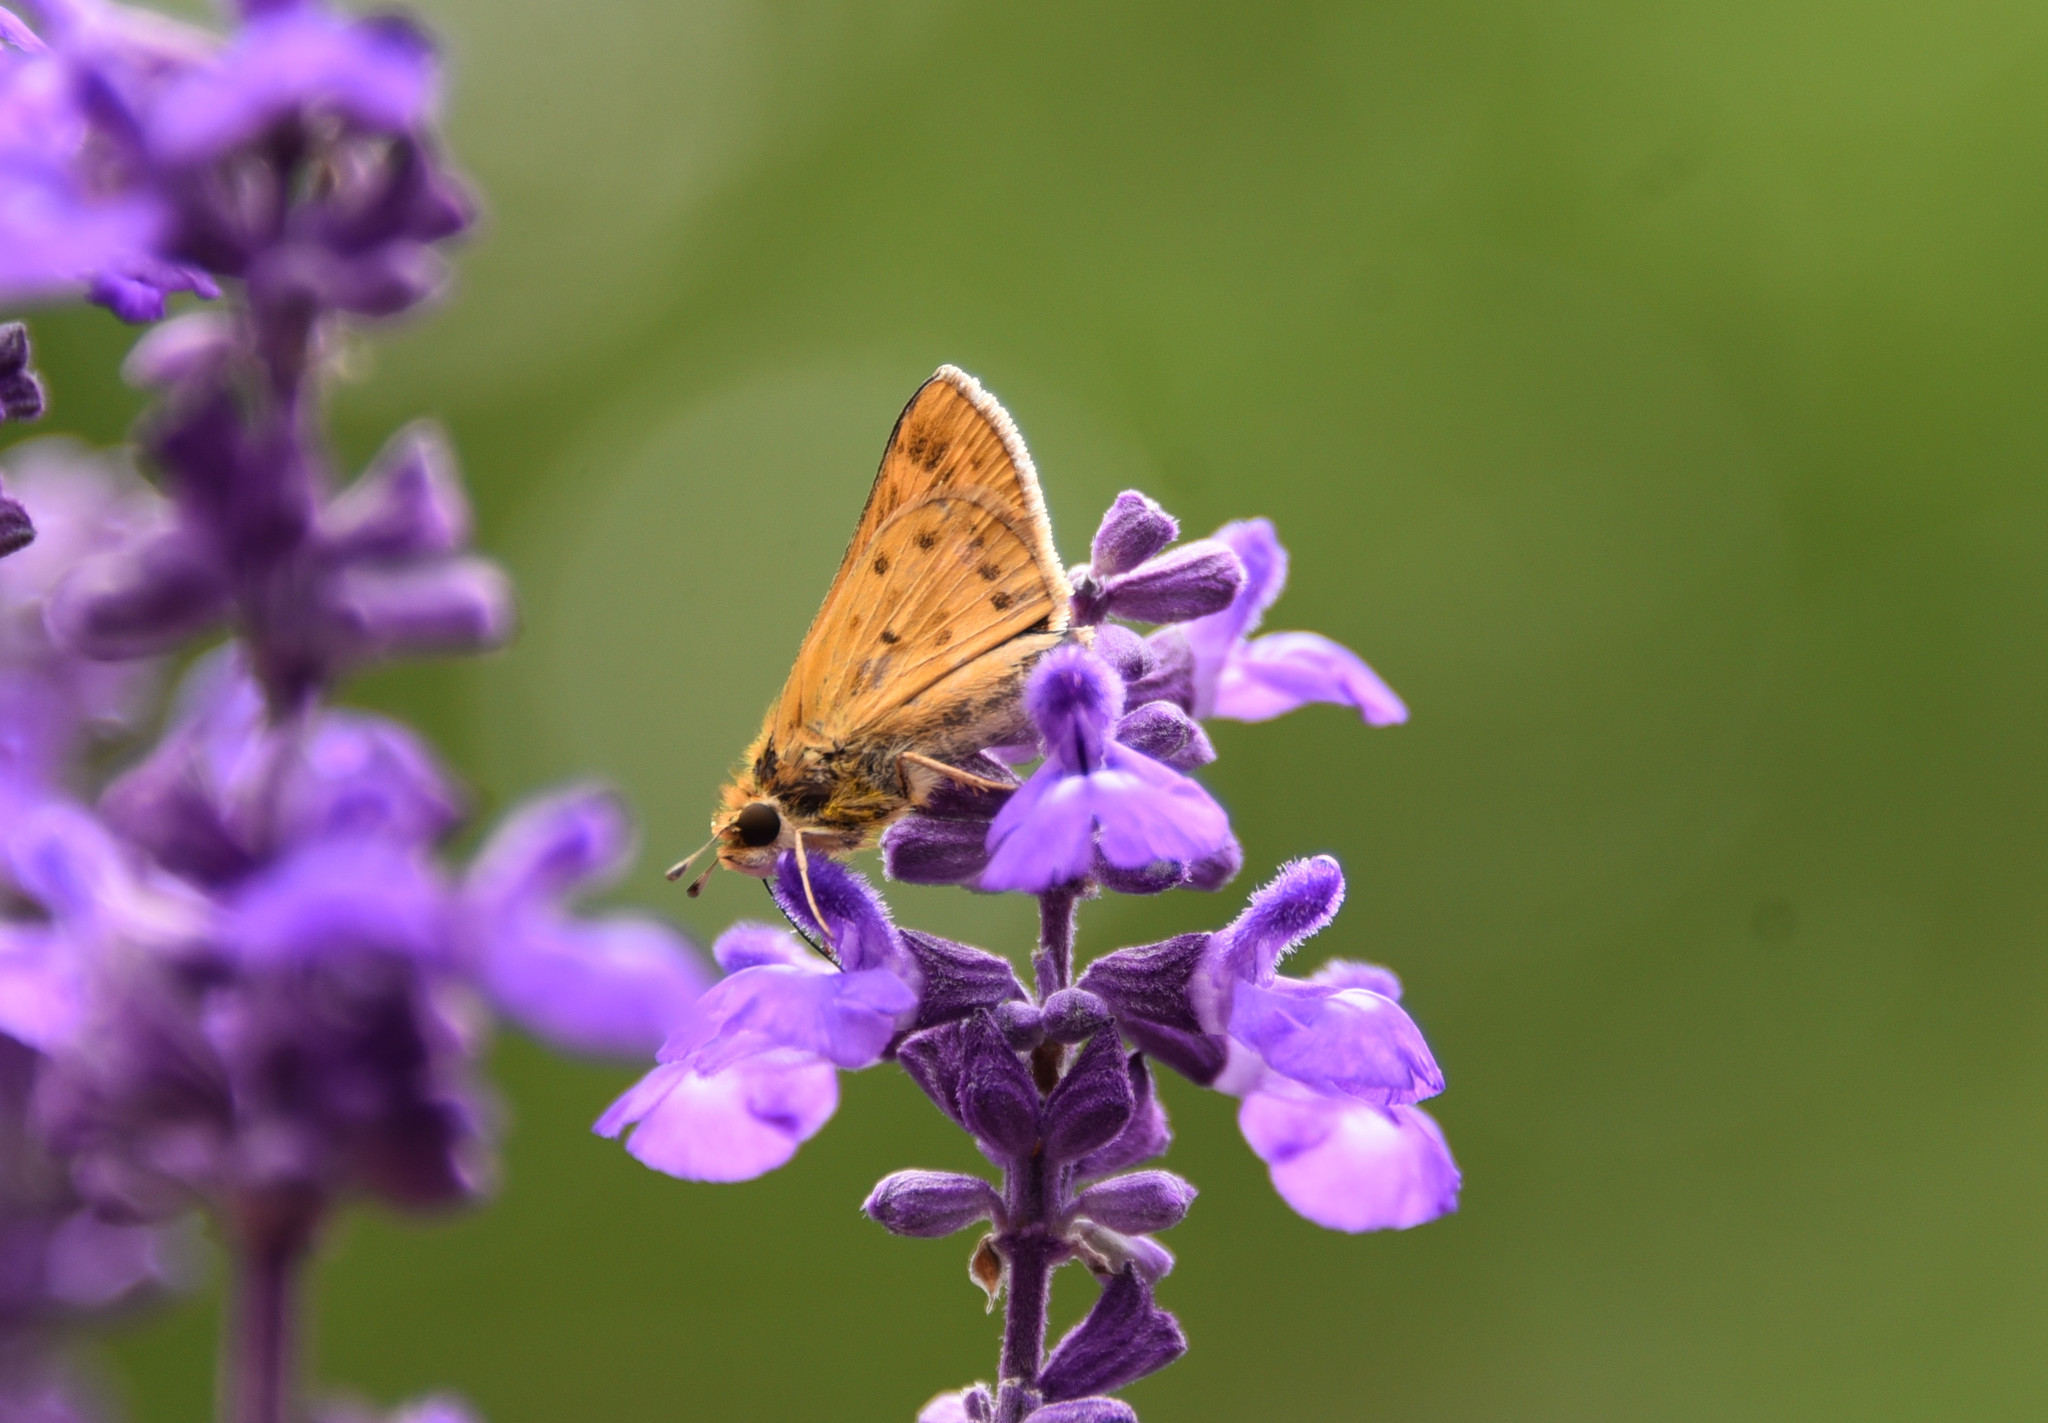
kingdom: Animalia
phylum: Arthropoda
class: Insecta
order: Lepidoptera
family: Hesperiidae
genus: Hylephila
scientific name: Hylephila phyleus
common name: Fiery skipper
